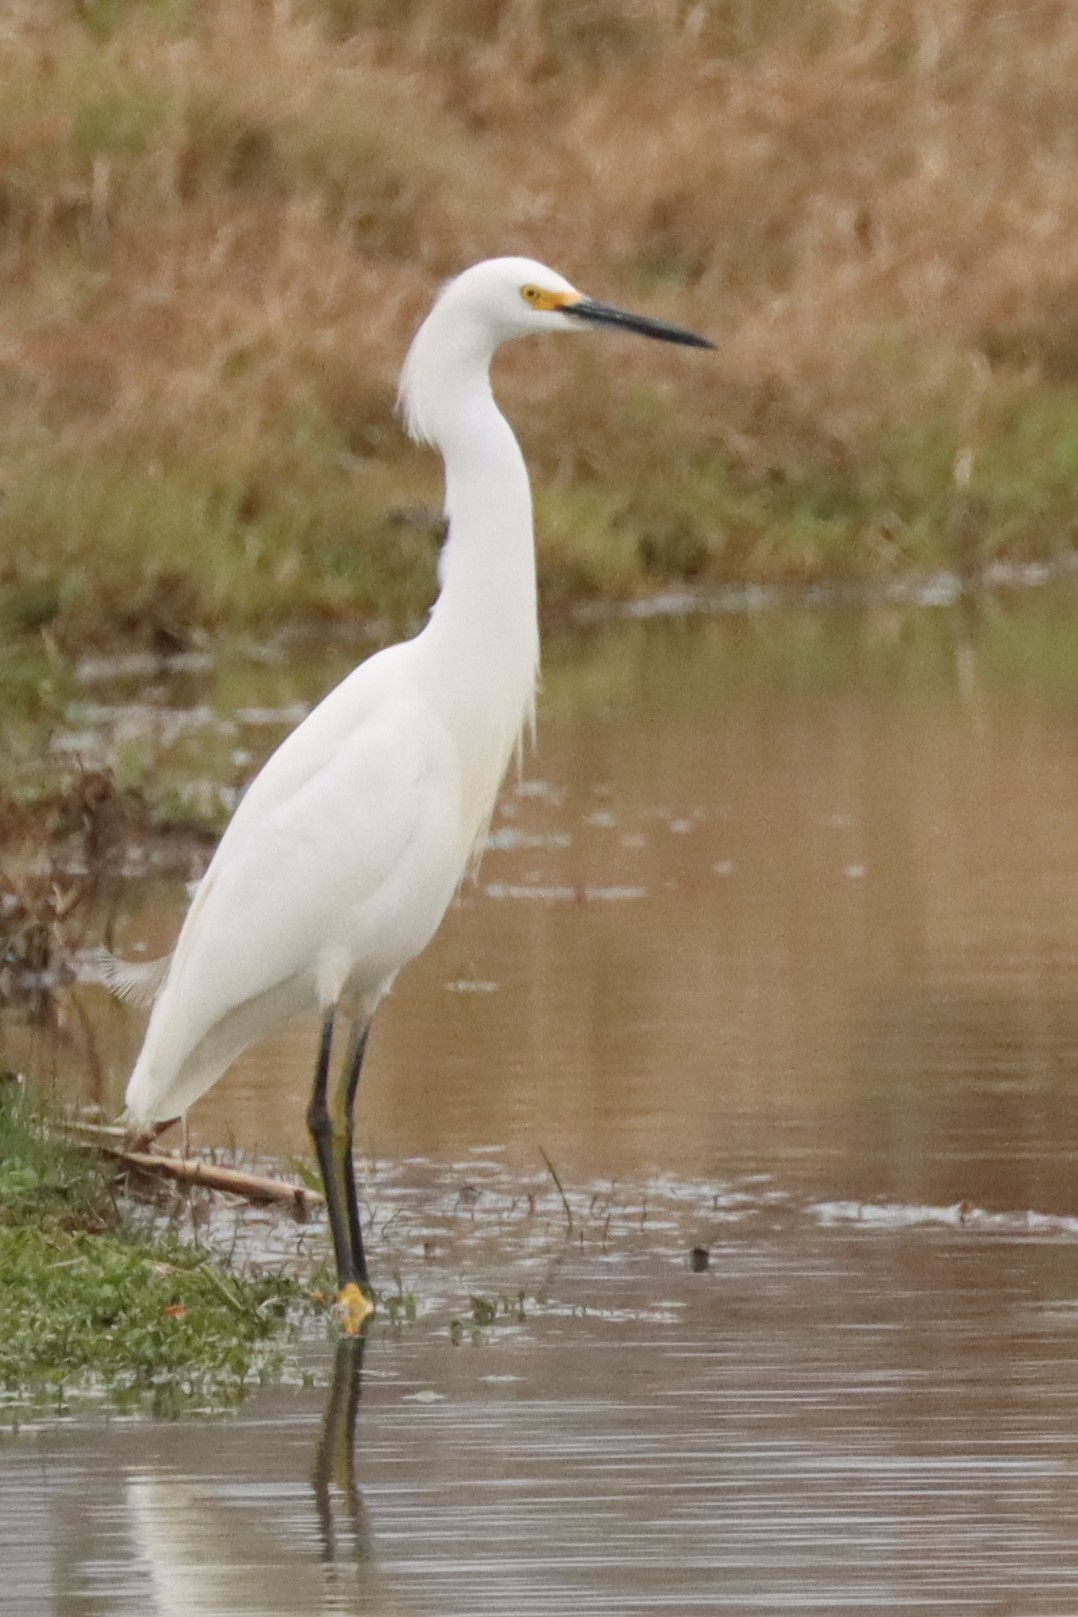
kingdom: Animalia
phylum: Chordata
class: Aves
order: Pelecaniformes
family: Ardeidae
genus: Egretta
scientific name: Egretta thula
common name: Snowy egret
